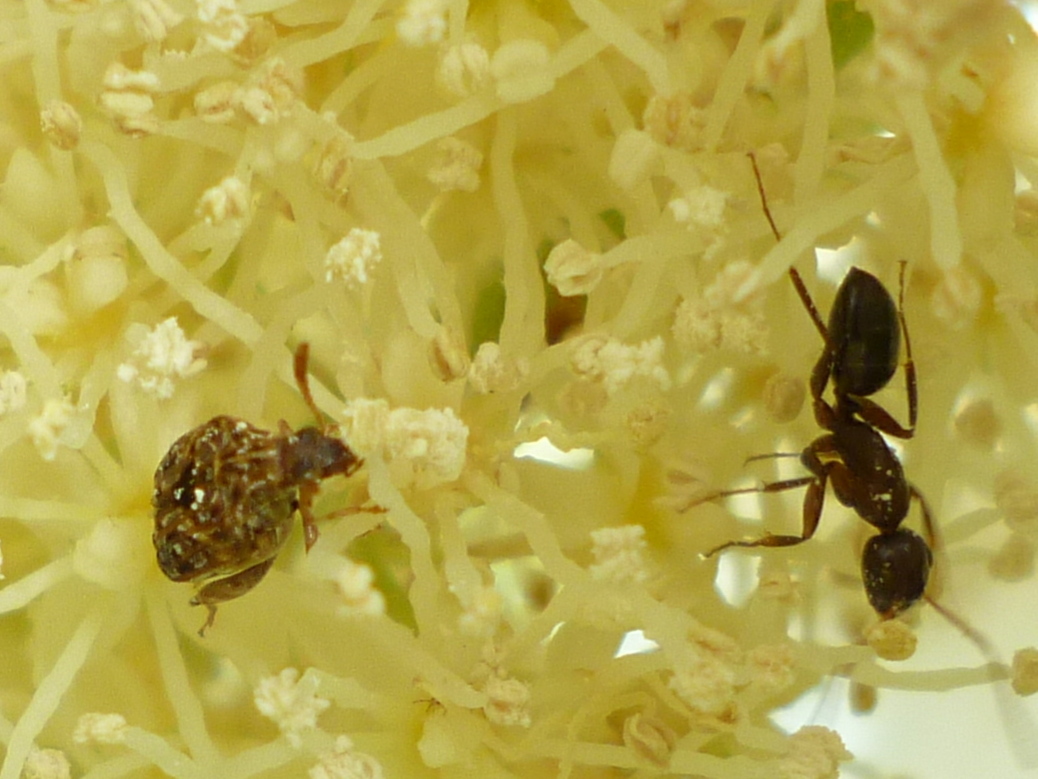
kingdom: Animalia
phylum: Arthropoda
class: Insecta
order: Coleoptera
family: Chrysomelidae
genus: Gibbobruchus
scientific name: Gibbobruchus mimus
